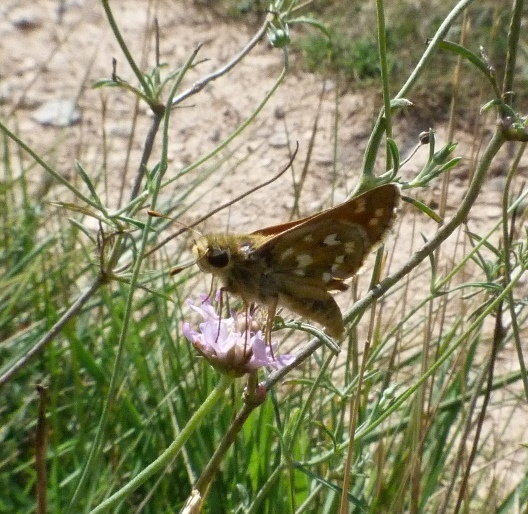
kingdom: Animalia
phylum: Arthropoda
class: Insecta
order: Lepidoptera
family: Hesperiidae
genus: Hesperia
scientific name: Hesperia comma
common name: Common branded skipper
